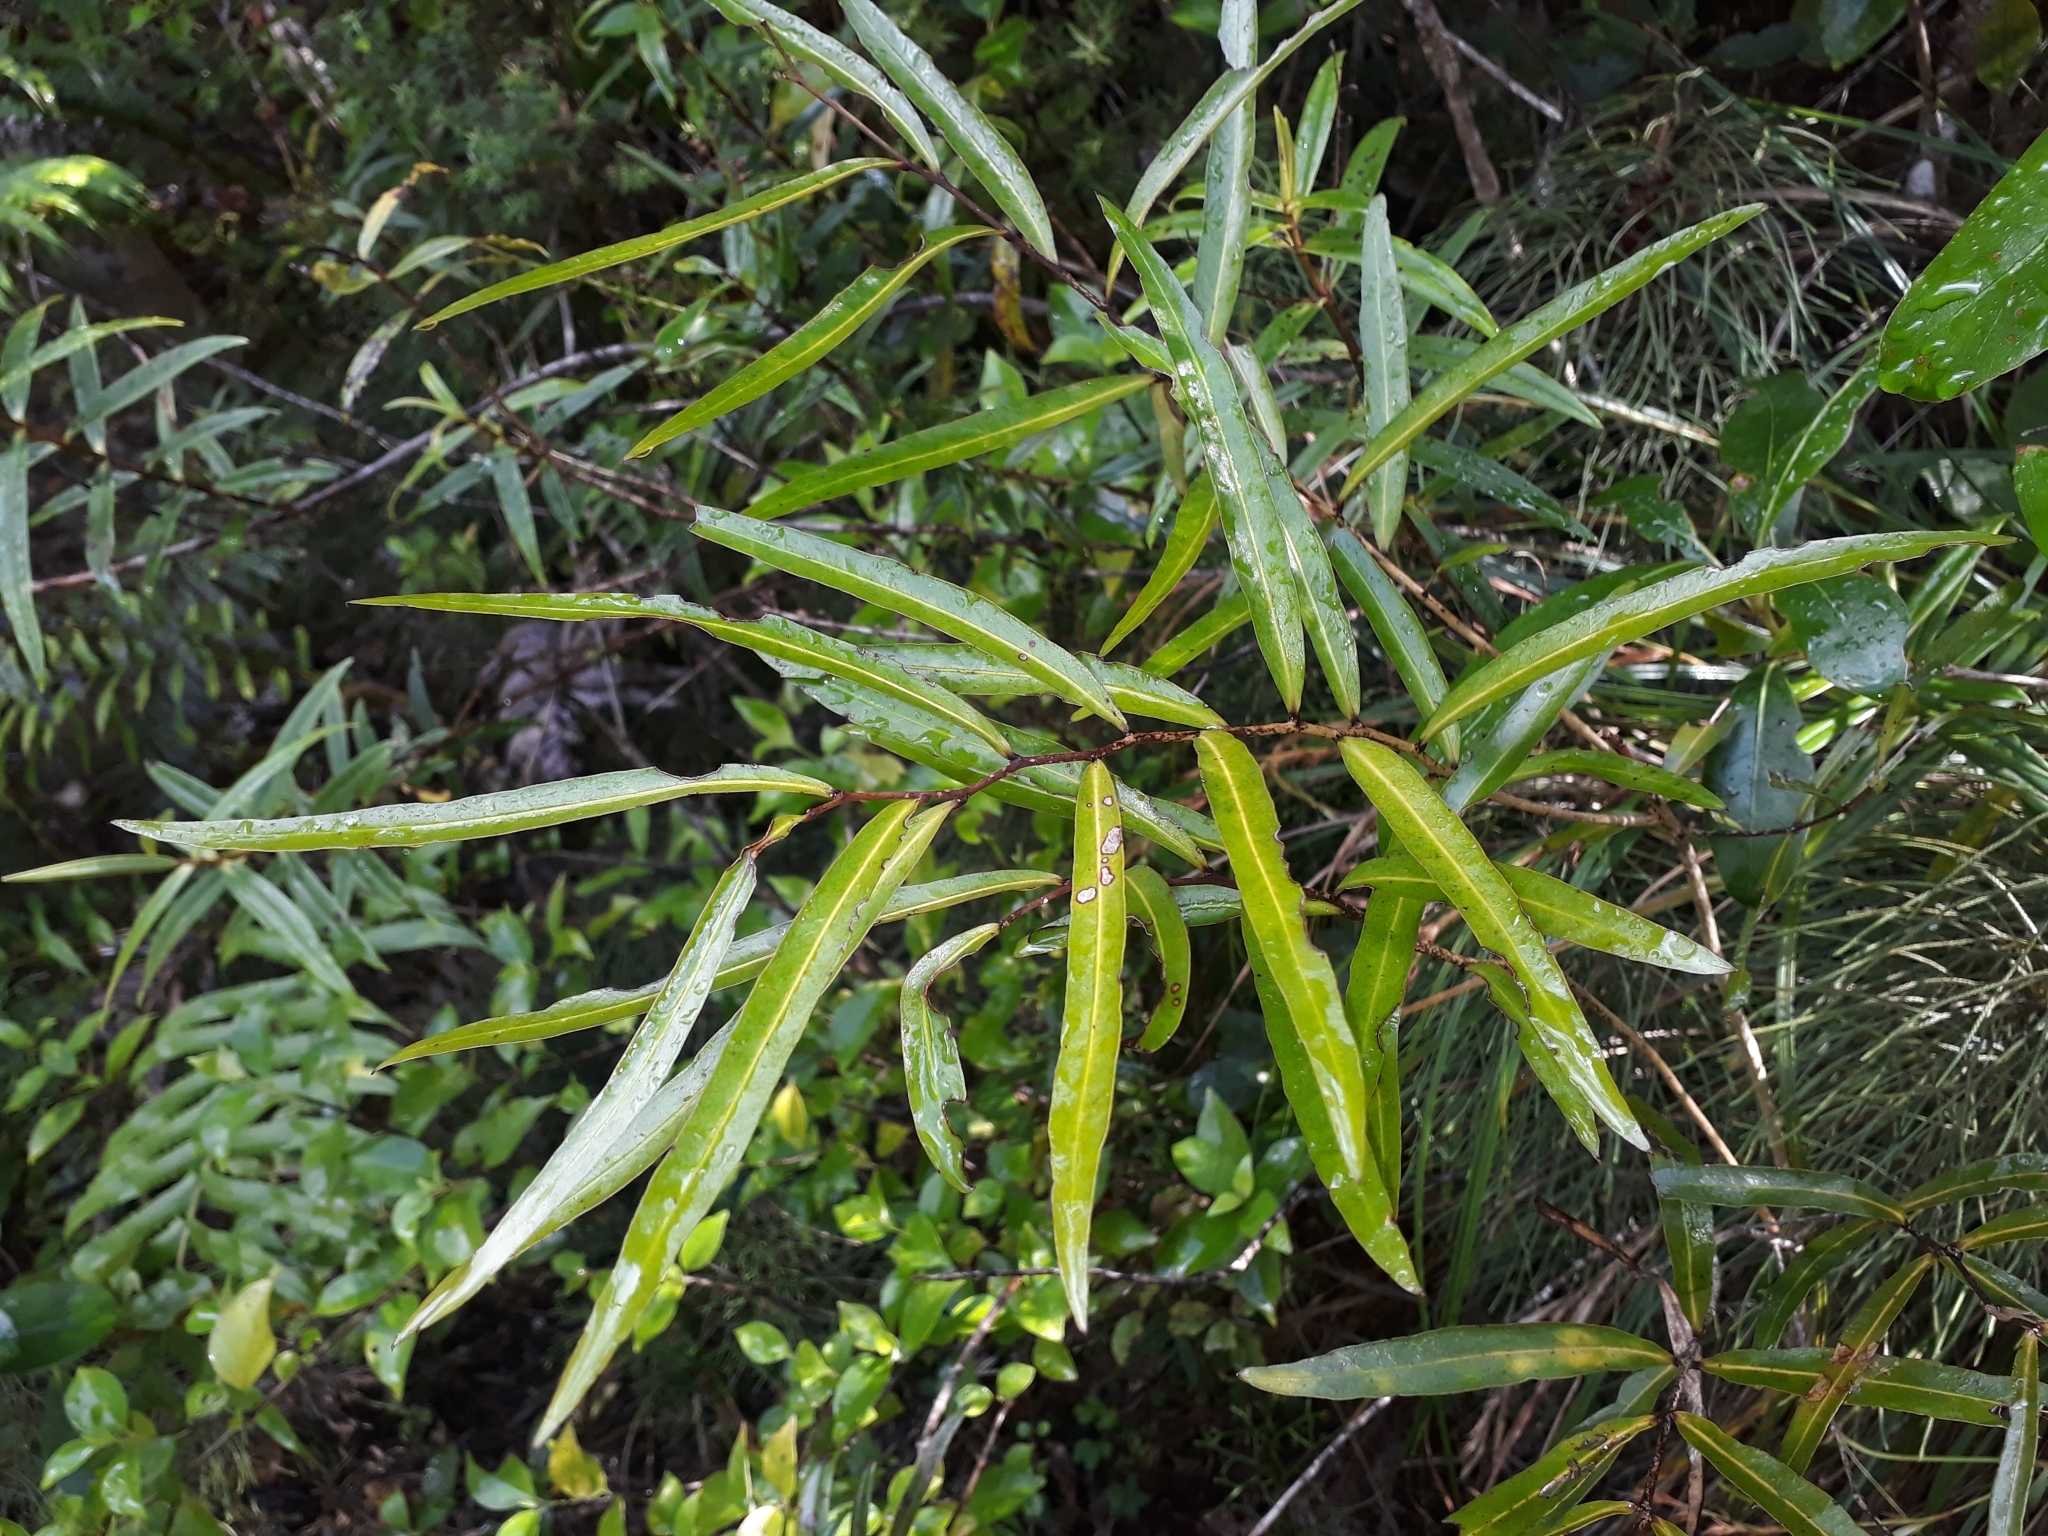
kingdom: Plantae
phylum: Tracheophyta
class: Magnoliopsida
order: Santalales
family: Nanodeaceae
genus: Mida
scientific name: Mida salicifolia
